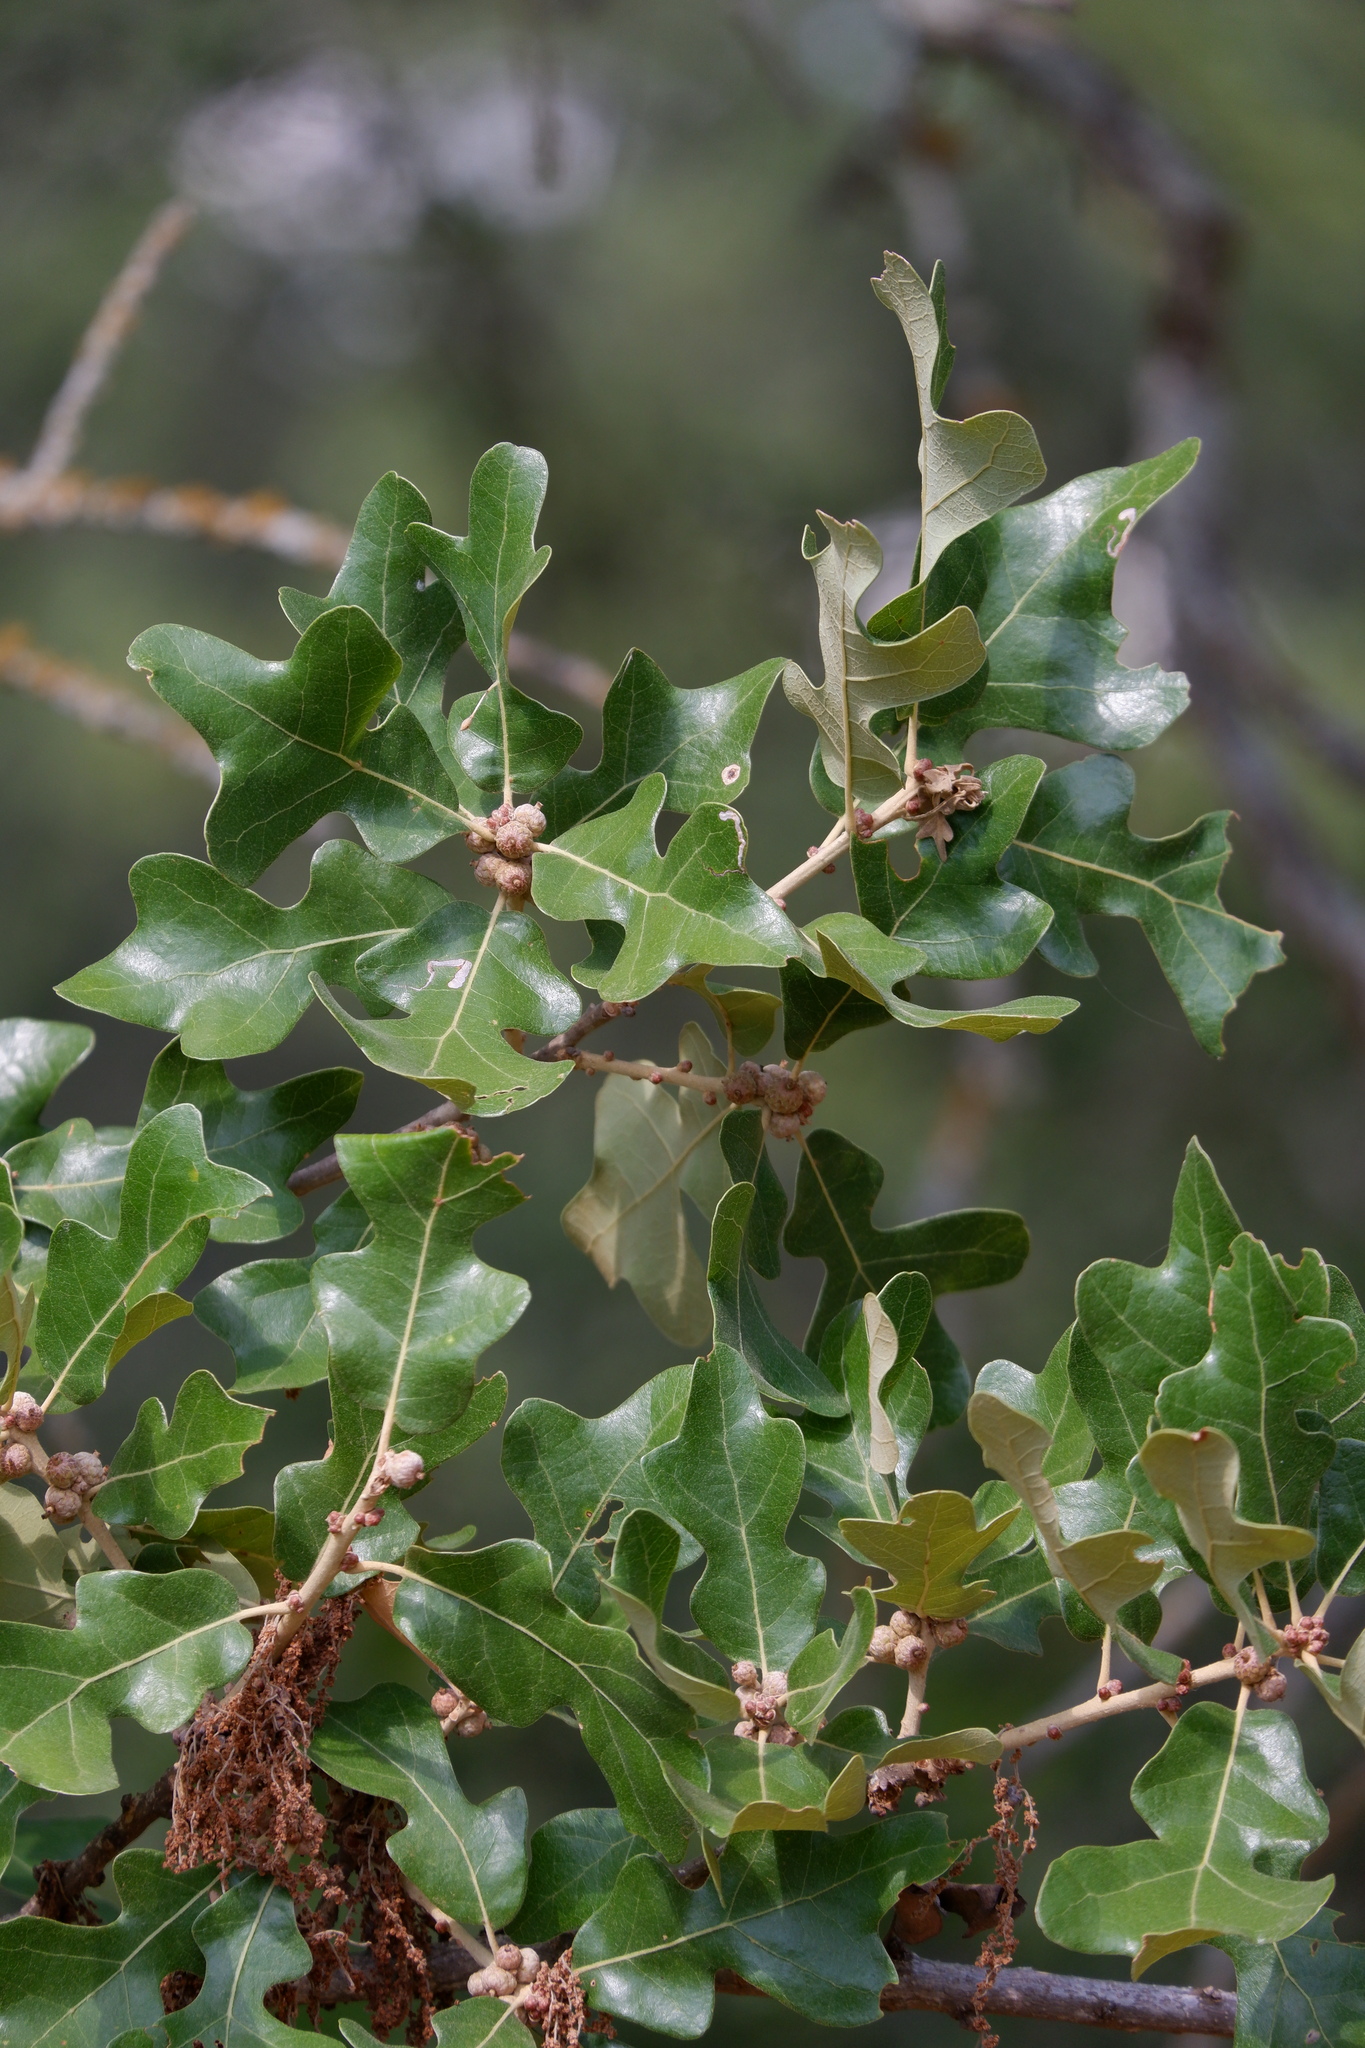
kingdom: Plantae
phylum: Tracheophyta
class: Magnoliopsida
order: Fagales
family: Fagaceae
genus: Quercus
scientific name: Quercus stellata
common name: Post oak
